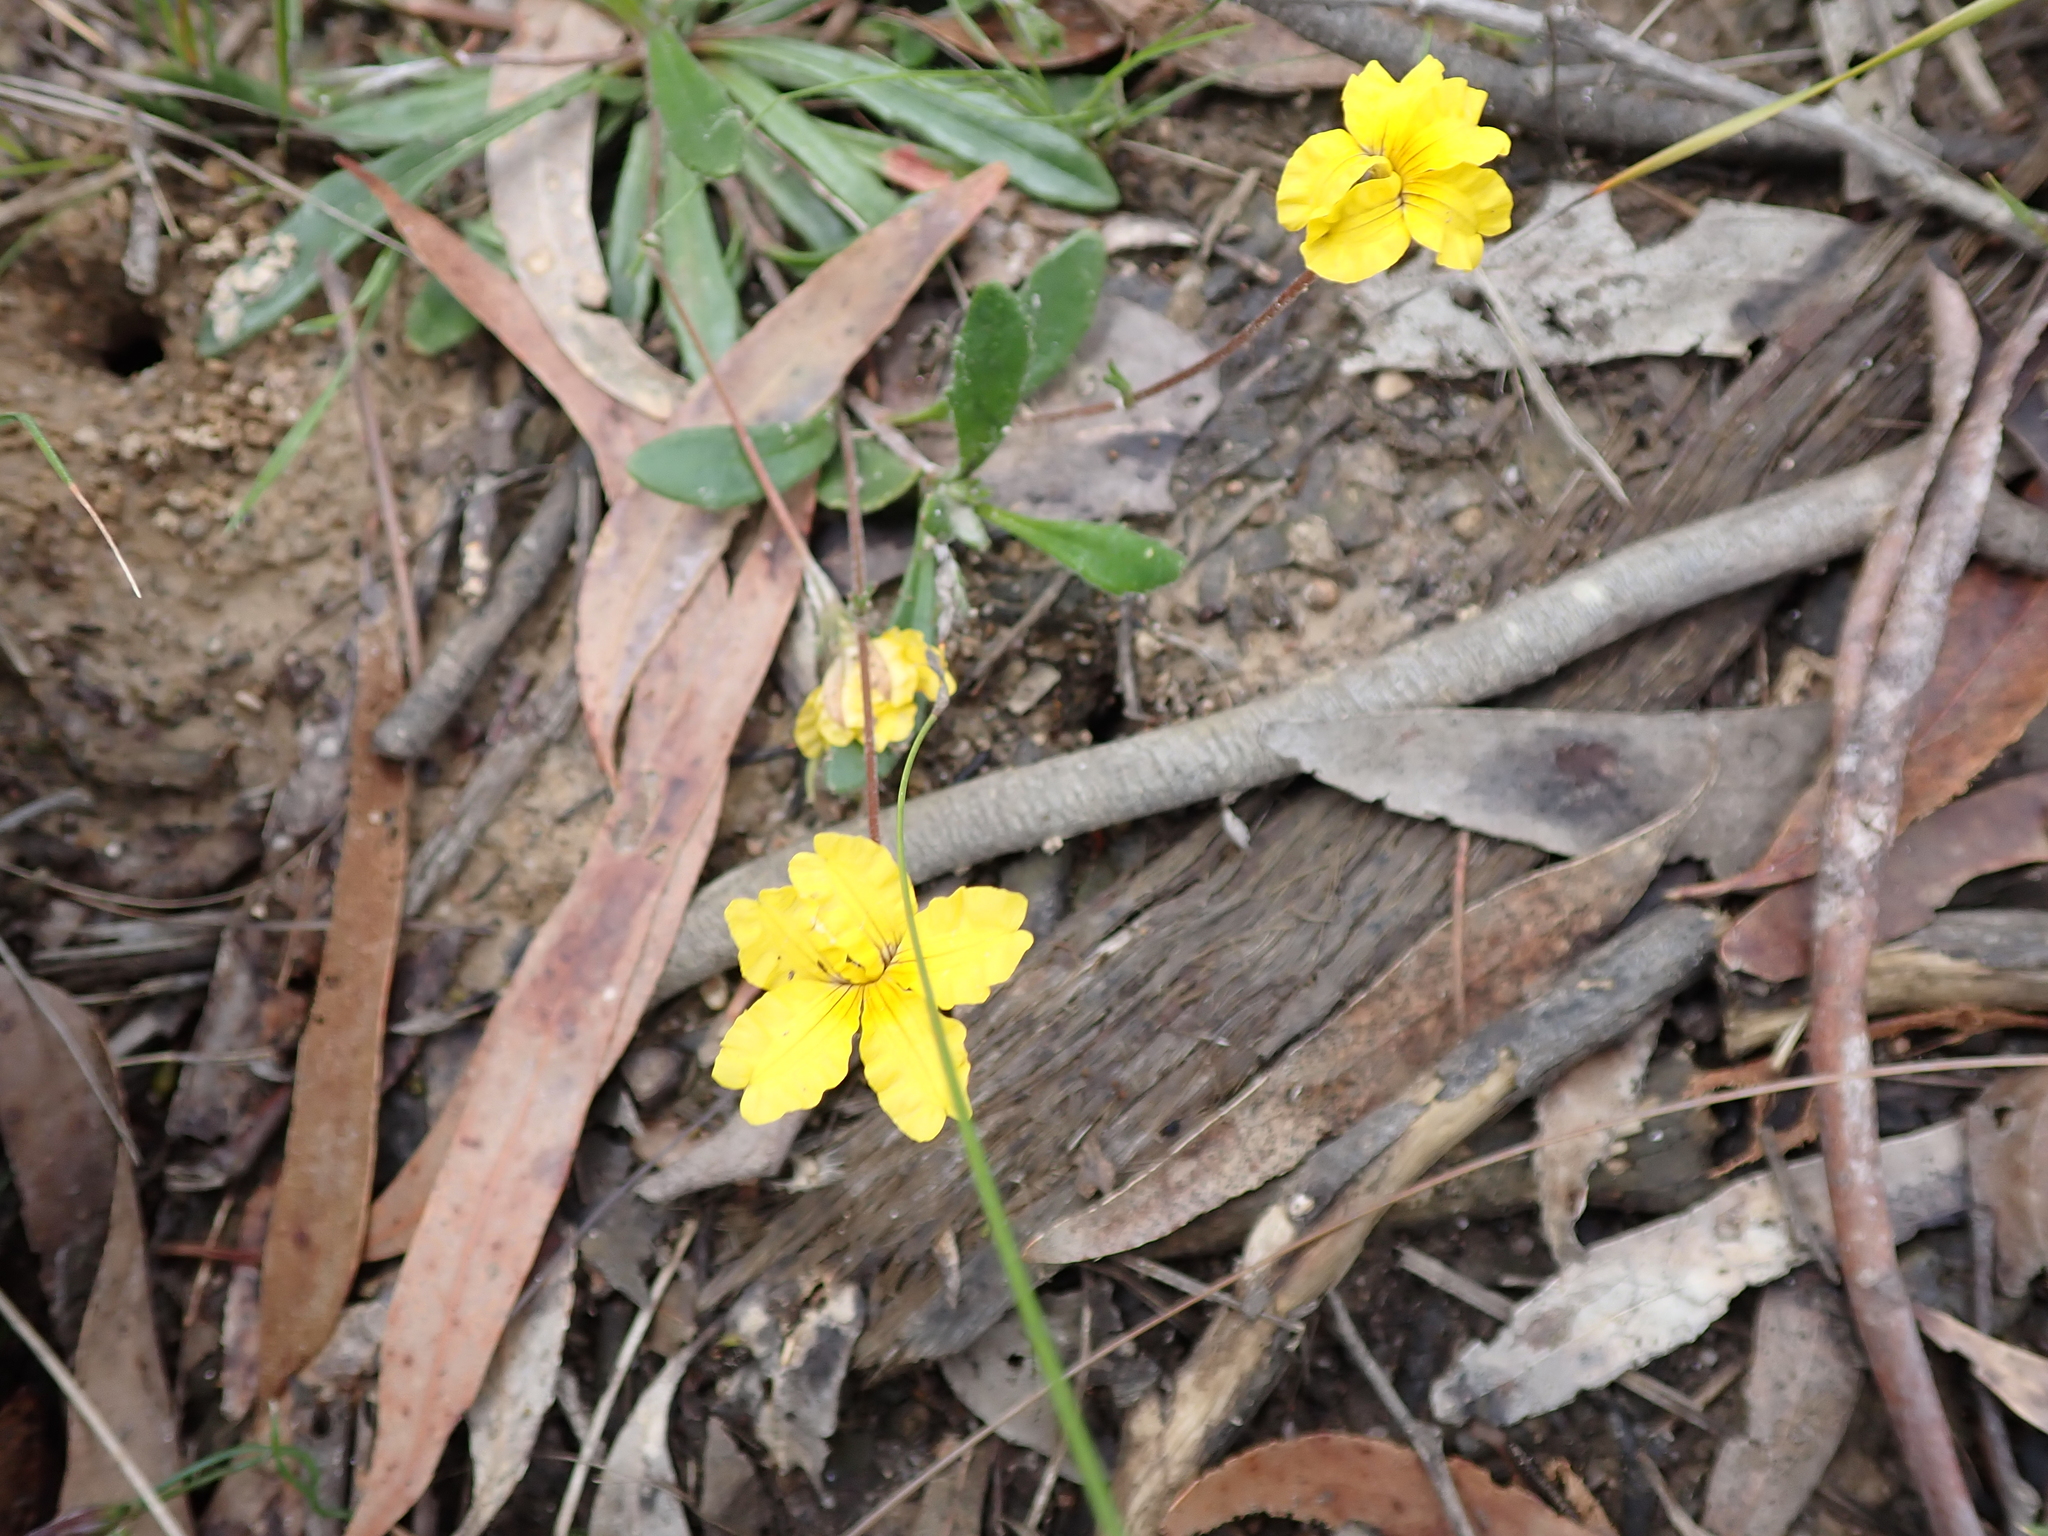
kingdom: Plantae
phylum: Tracheophyta
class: Magnoliopsida
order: Asterales
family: Goodeniaceae
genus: Goodenia
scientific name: Goodenia geniculata
